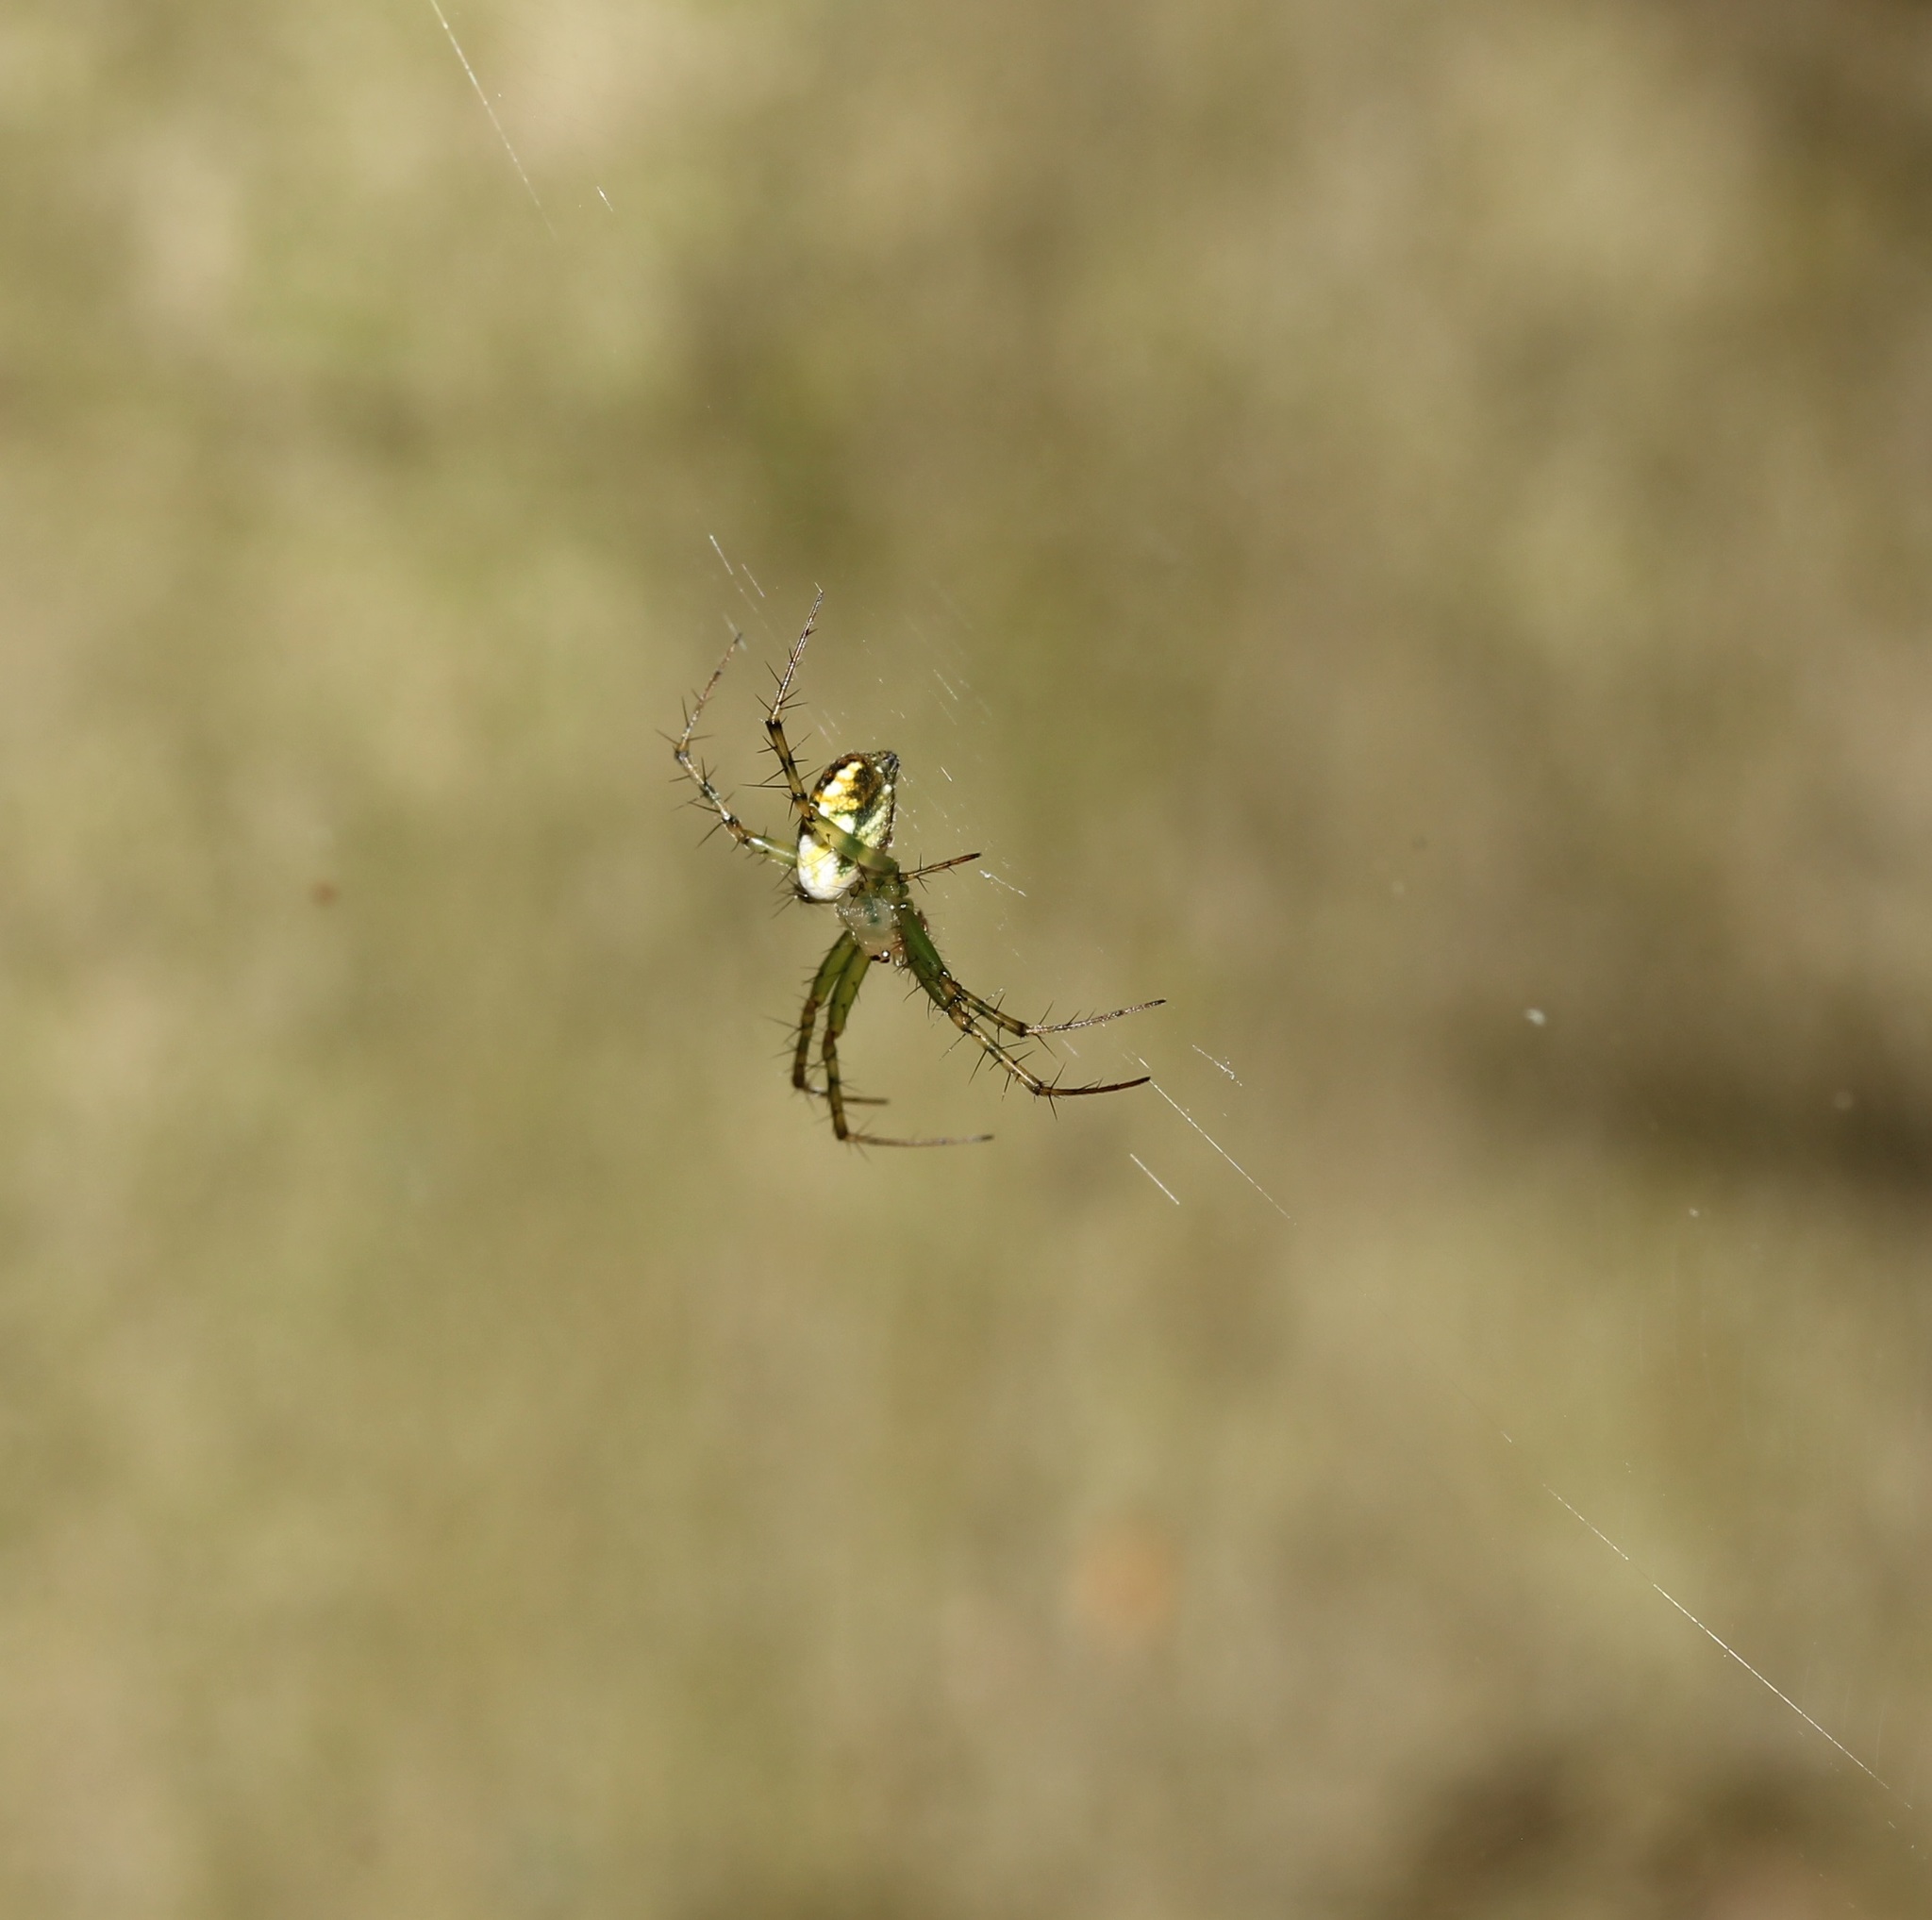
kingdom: Animalia
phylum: Arthropoda
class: Arachnida
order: Araneae
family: Araneidae
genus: Mangora
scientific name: Mangora spiculata
